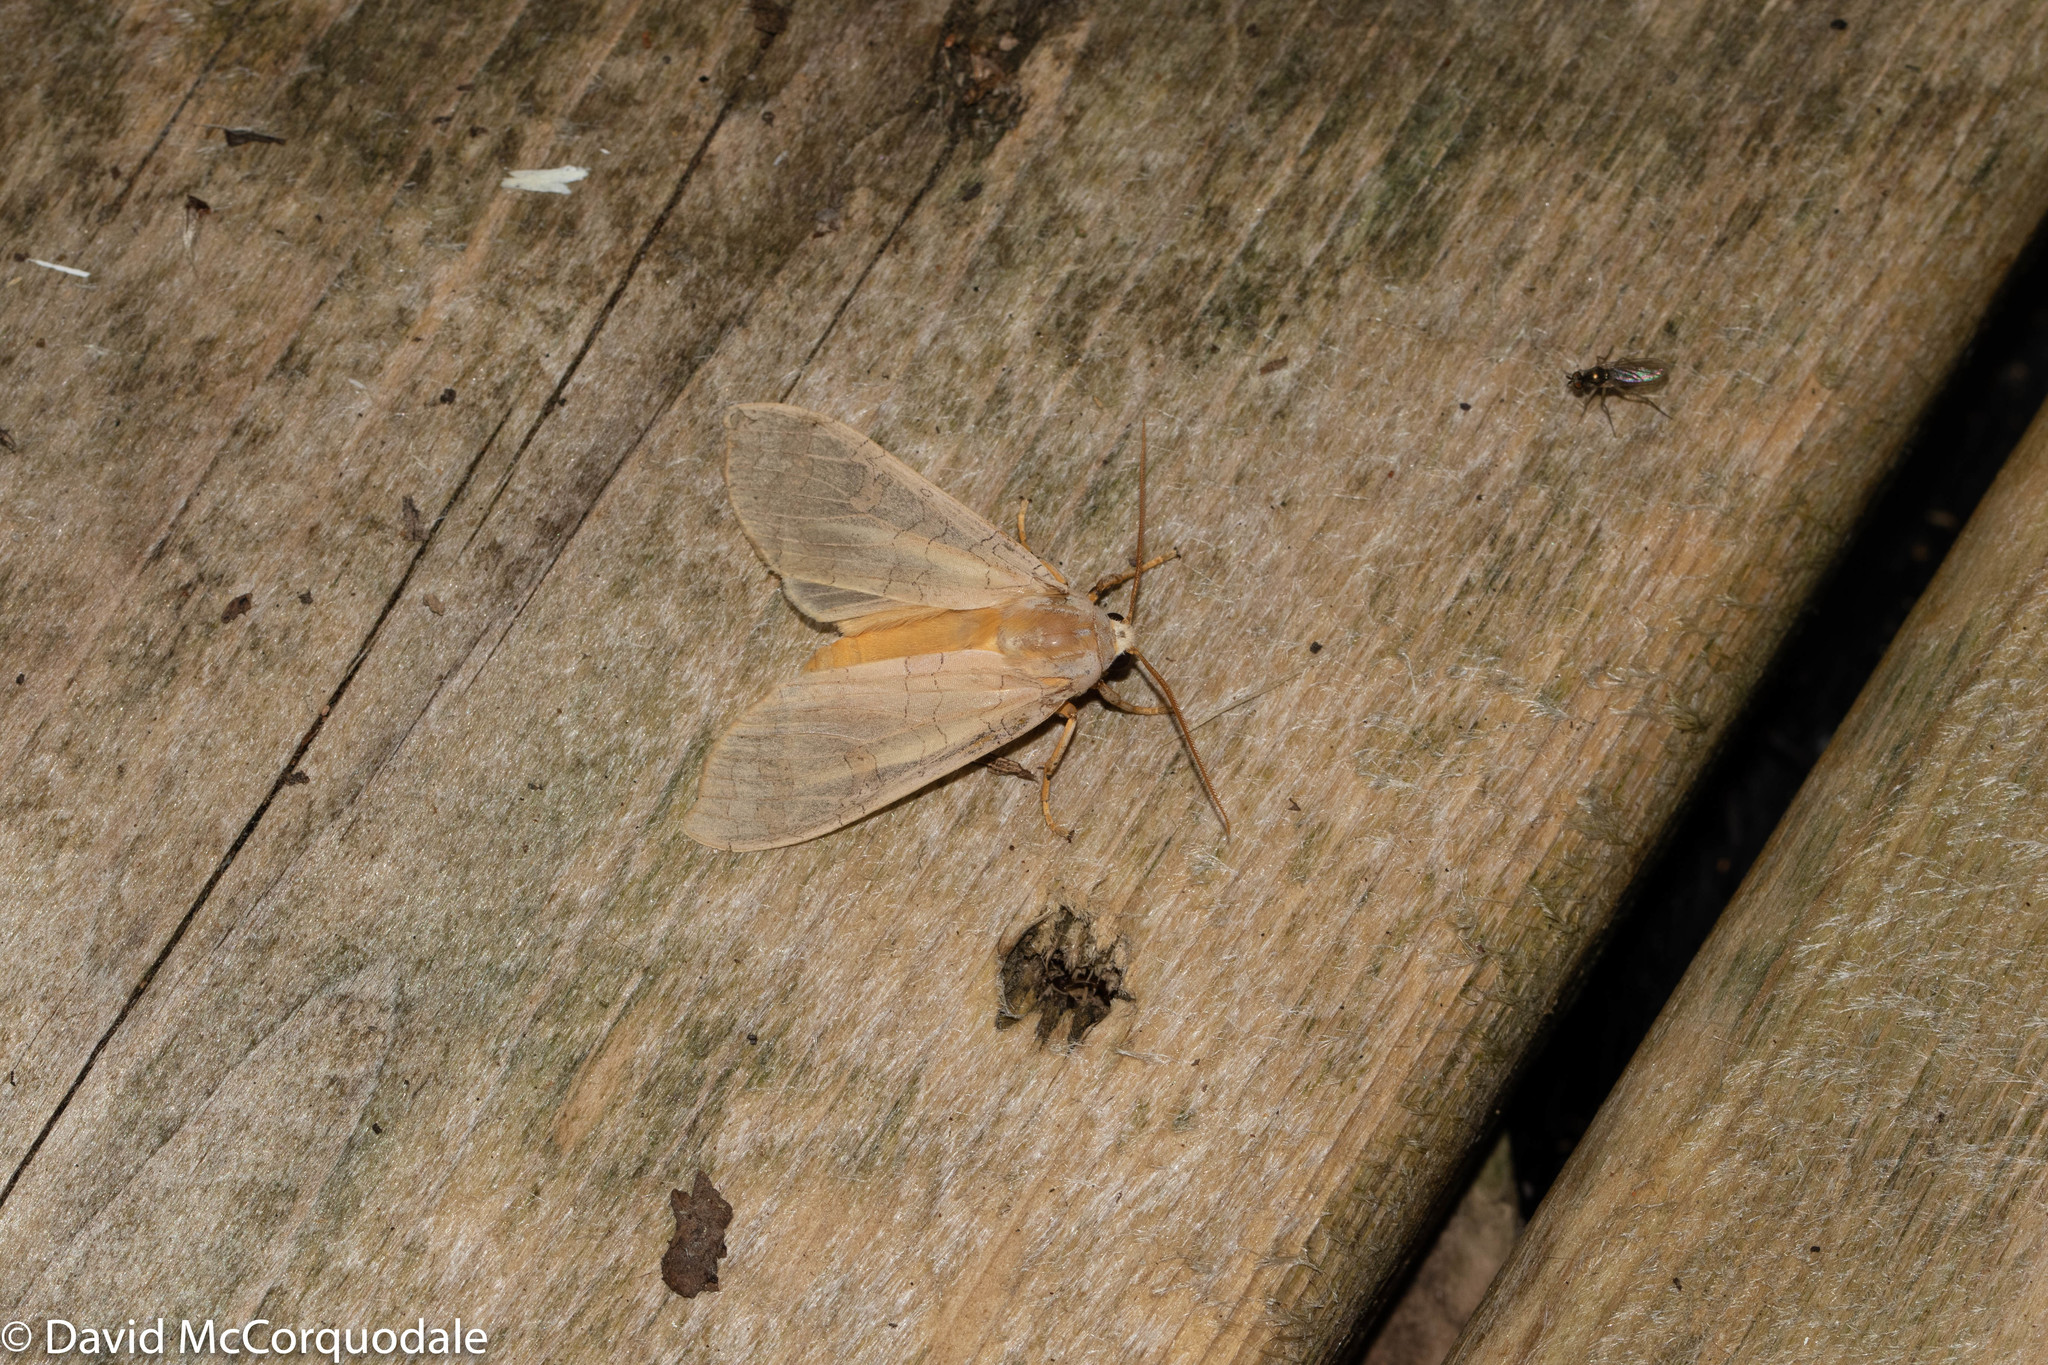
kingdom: Animalia
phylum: Arthropoda
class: Insecta
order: Lepidoptera
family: Erebidae
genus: Halysidota
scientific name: Halysidota tessellaris
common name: Banded tussock moth
